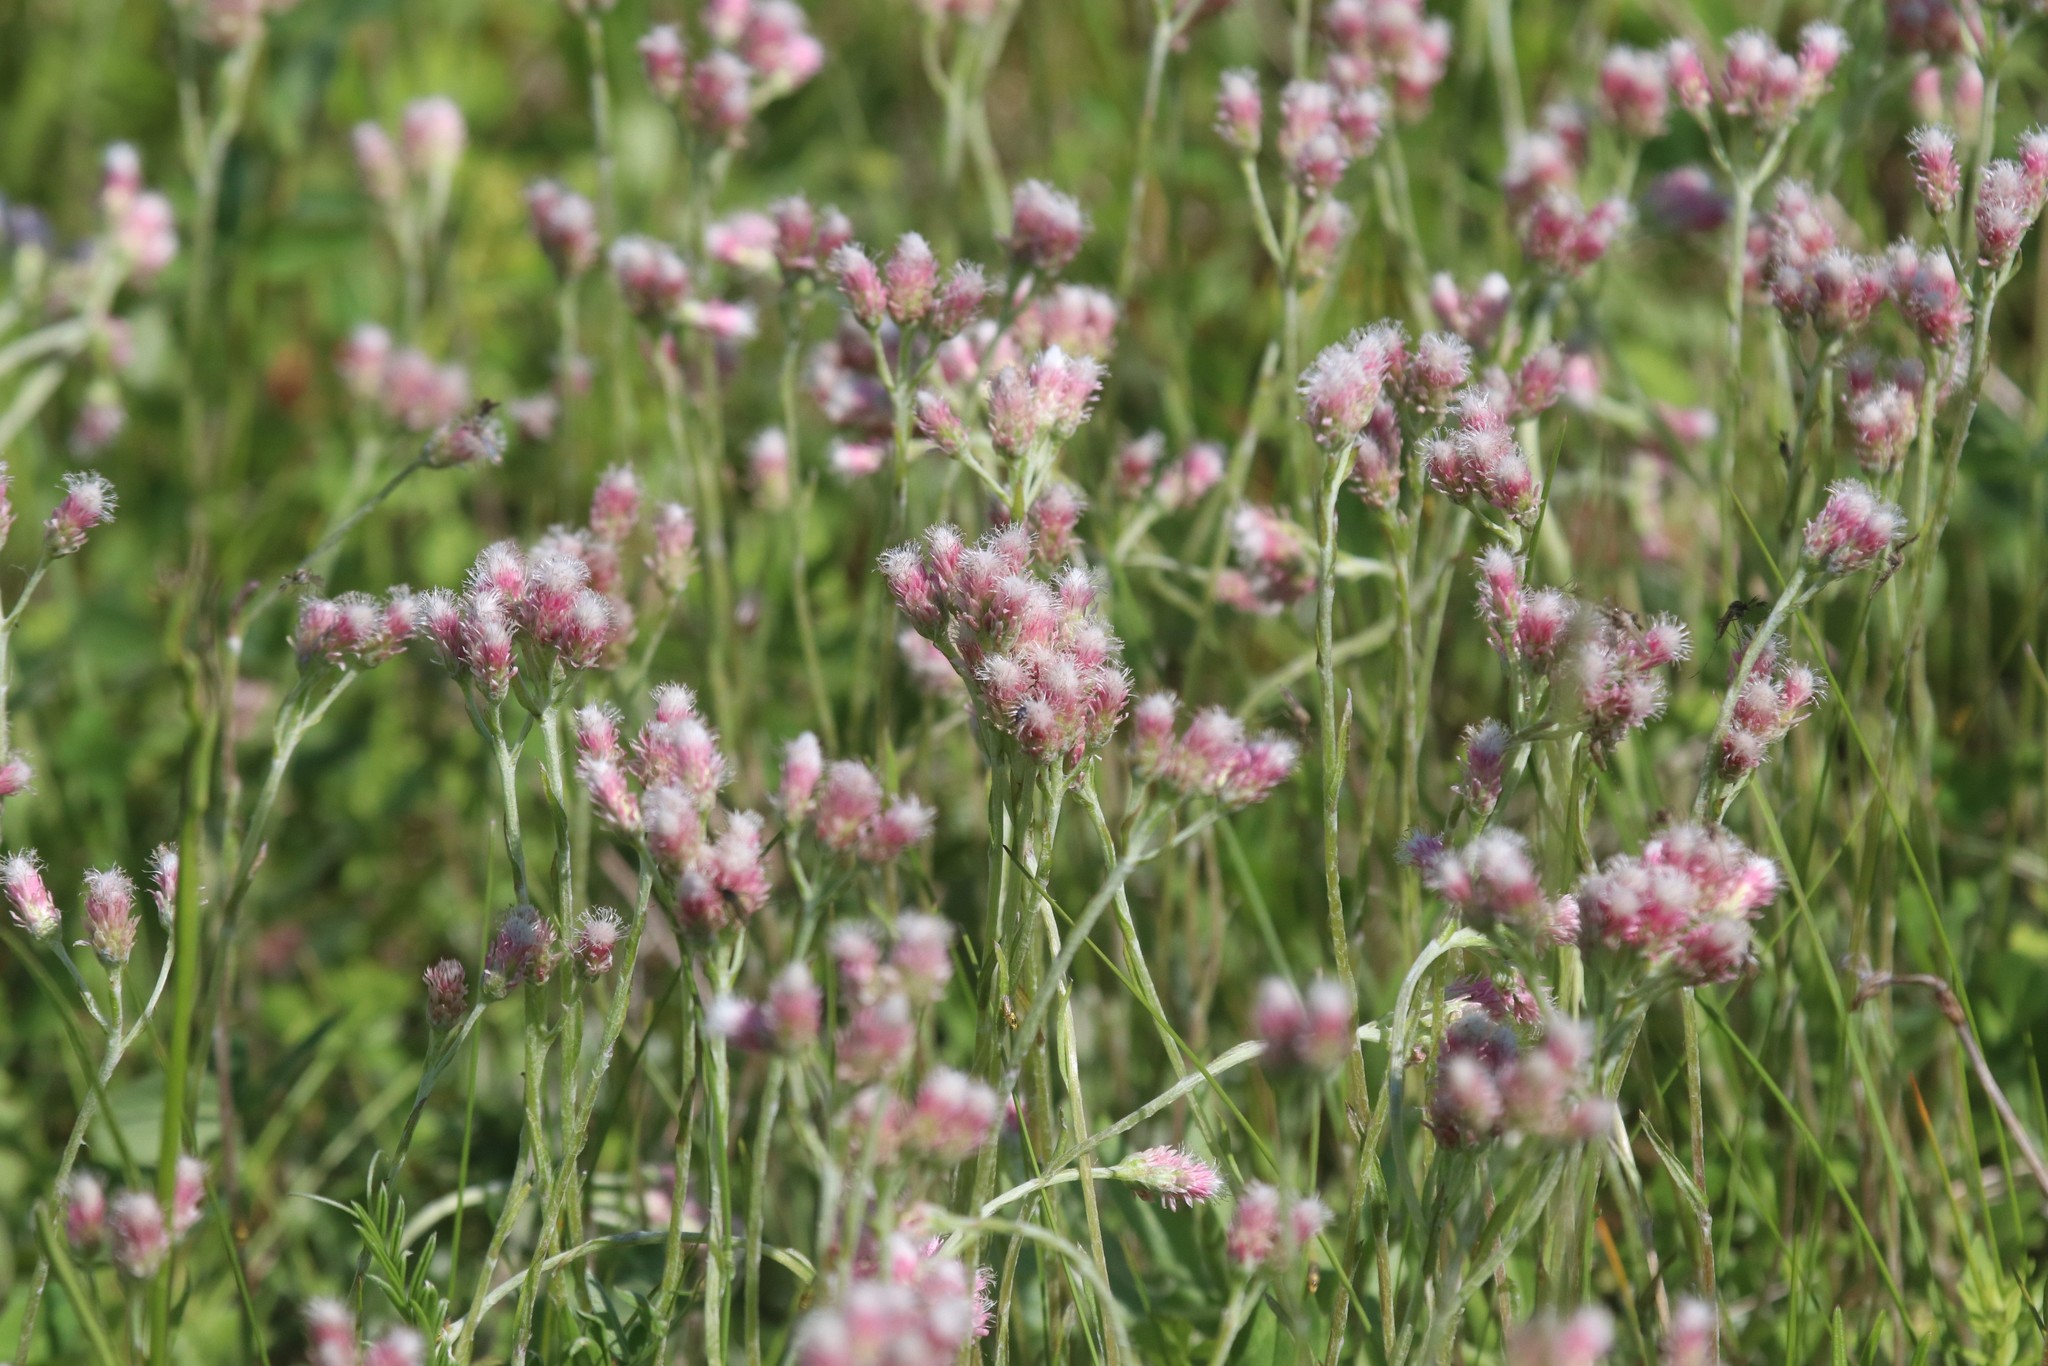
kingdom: Plantae
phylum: Tracheophyta
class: Magnoliopsida
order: Asterales
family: Asteraceae
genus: Antennaria
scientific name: Antennaria dioica
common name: Mountain everlasting
